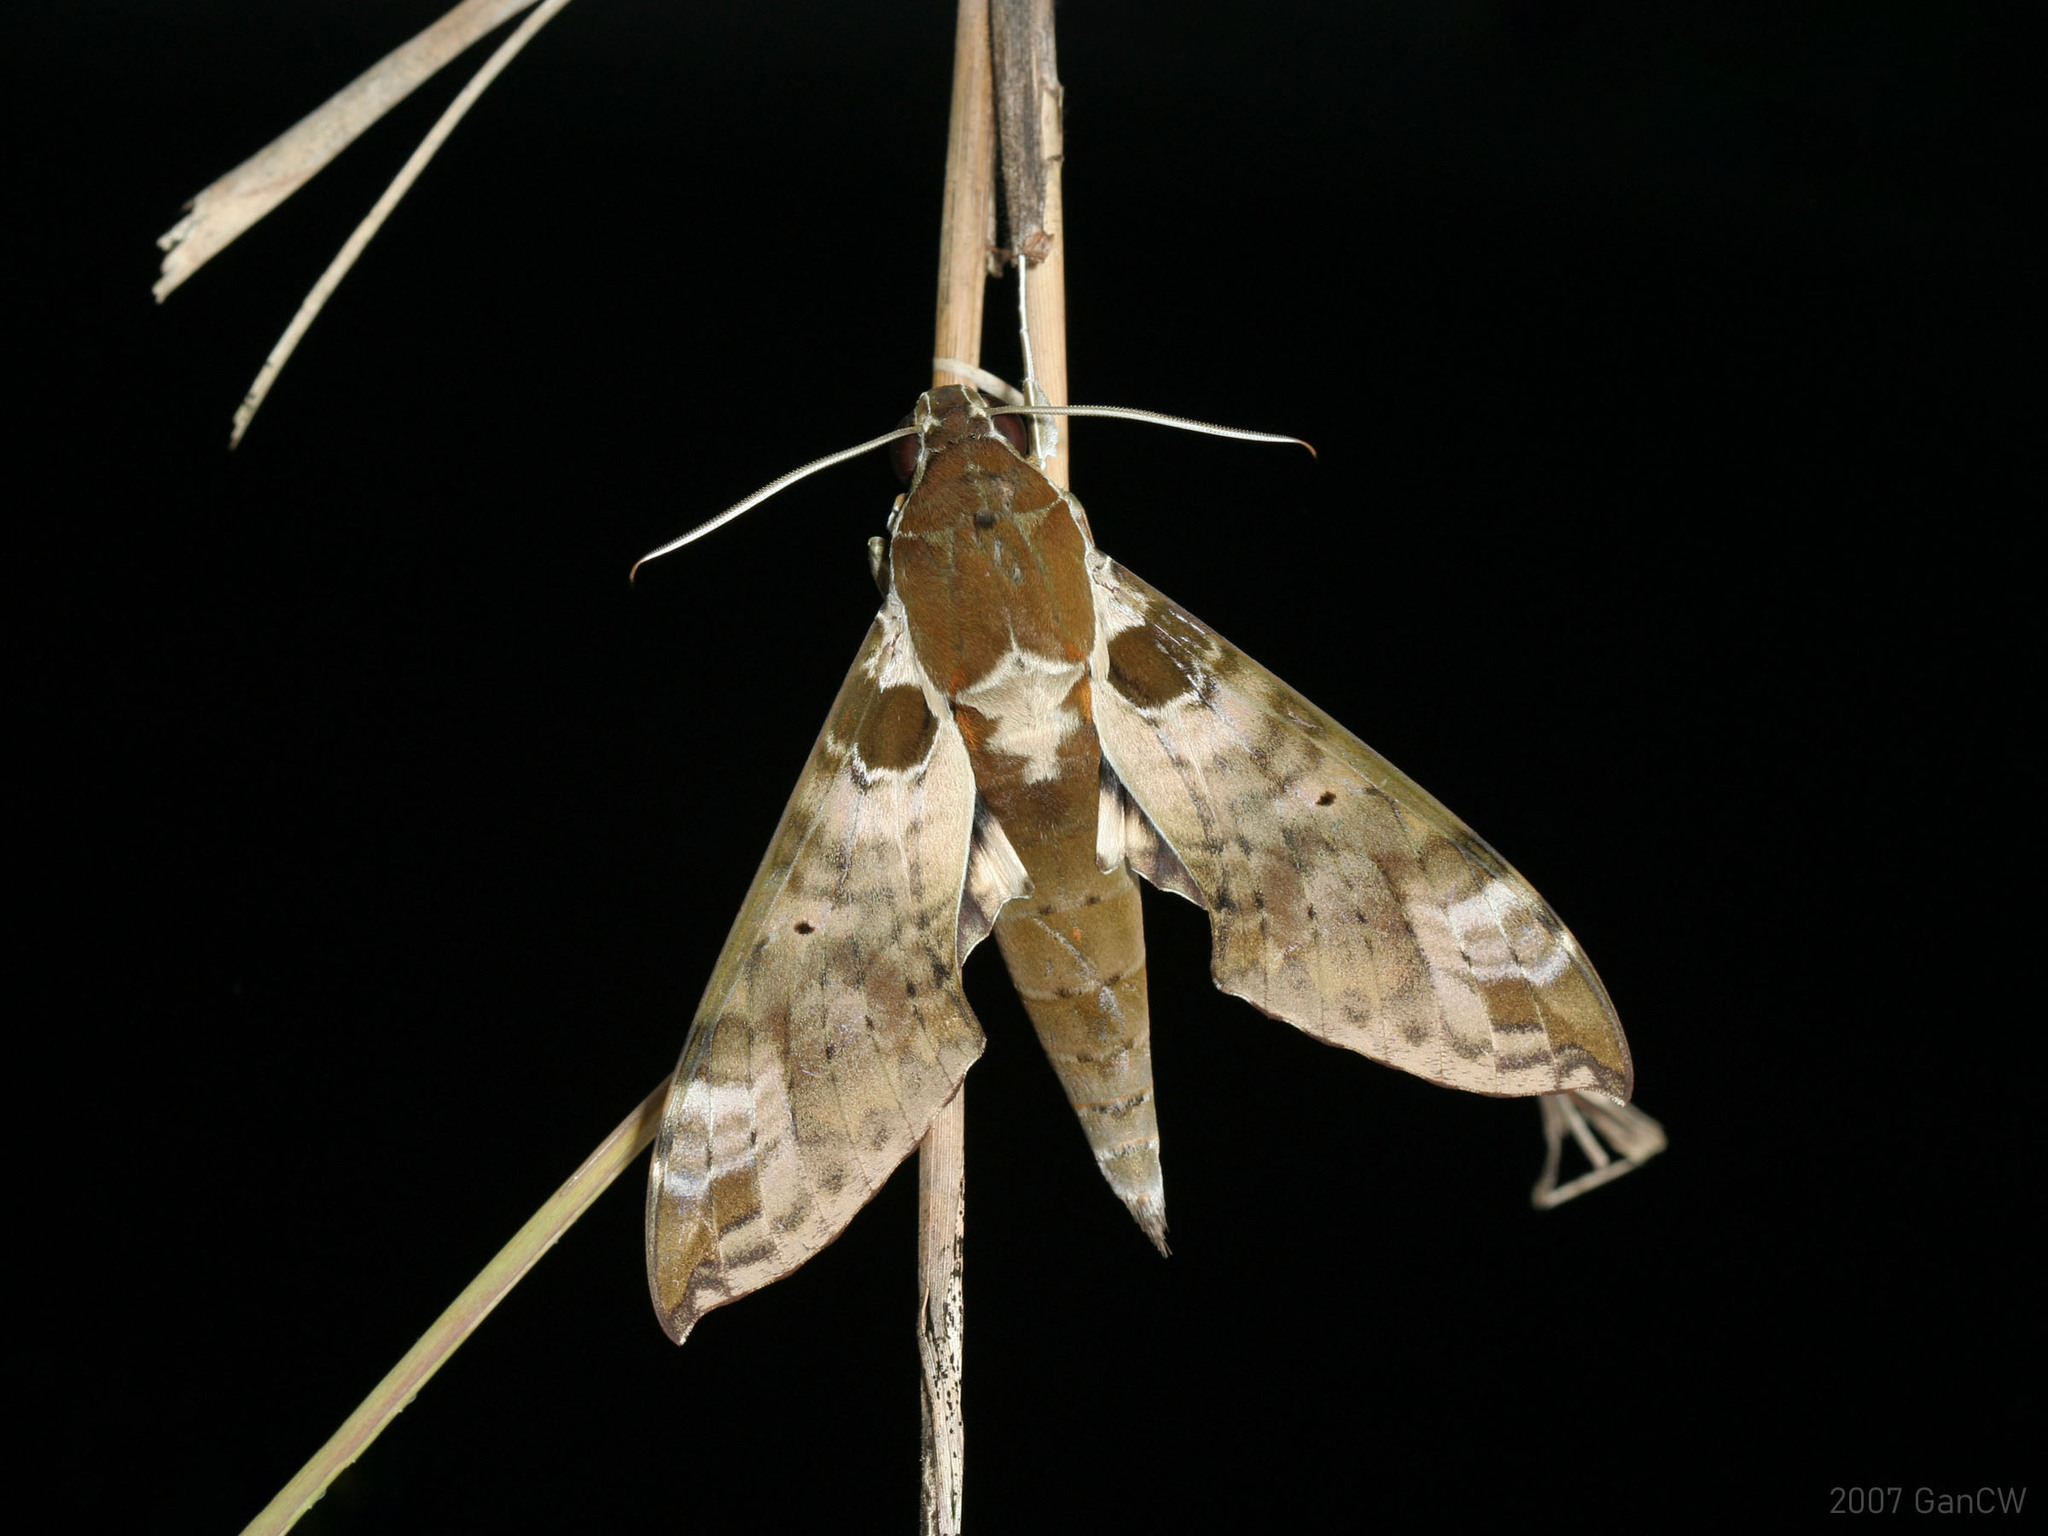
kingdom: Animalia
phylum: Arthropoda
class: Insecta
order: Lepidoptera
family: Sphingidae
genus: Cechenena
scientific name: Cechenena helops
